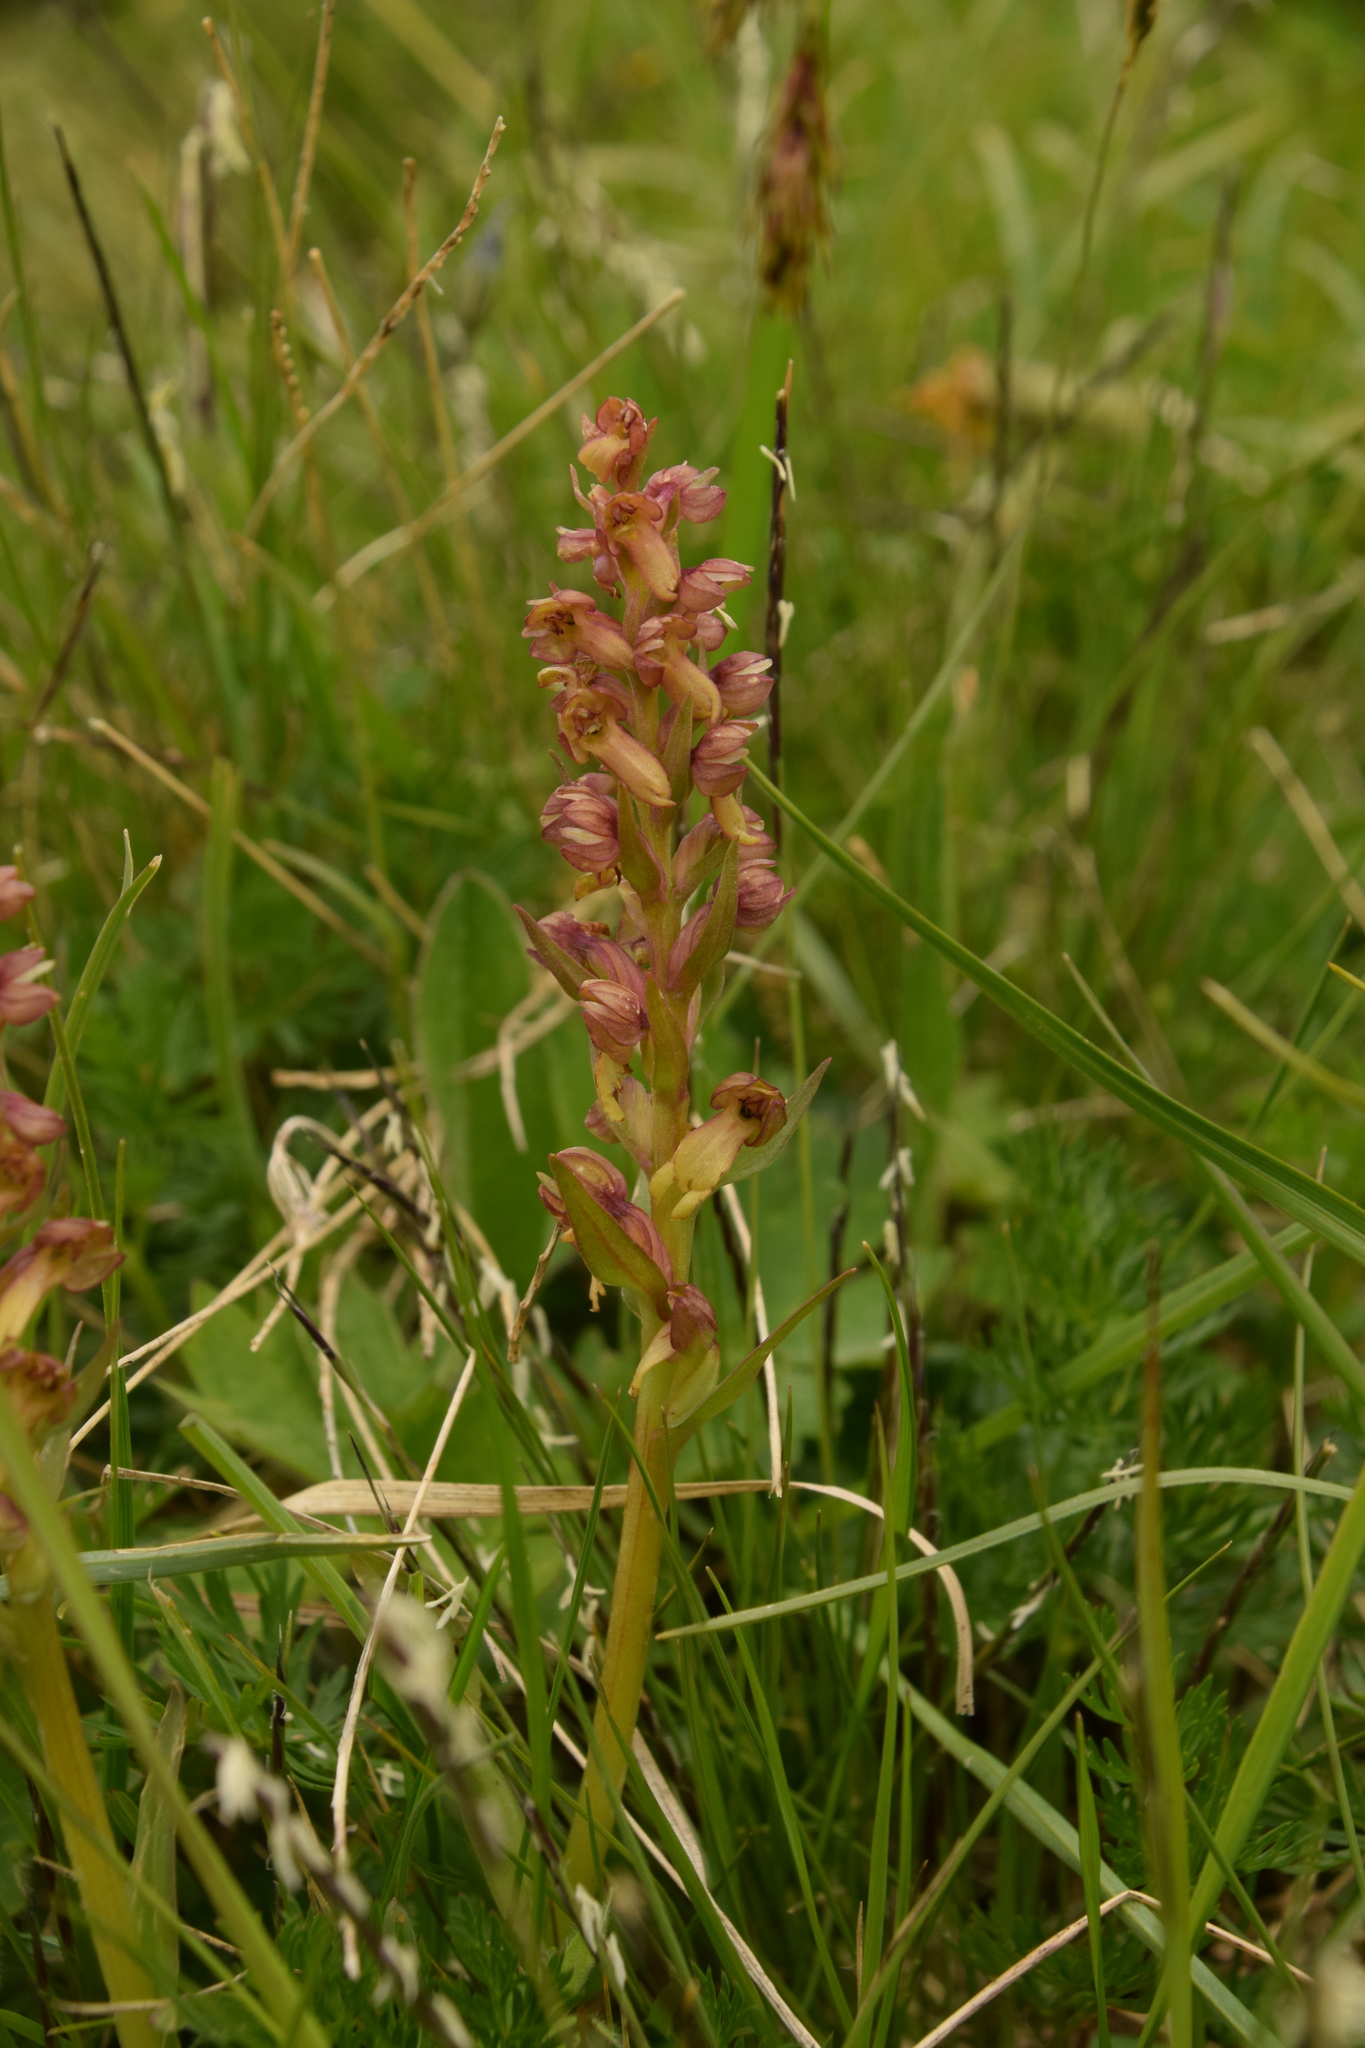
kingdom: Plantae
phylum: Tracheophyta
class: Liliopsida
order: Asparagales
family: Orchidaceae
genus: Dactylorhiza
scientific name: Dactylorhiza viridis
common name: Longbract frog orchid
